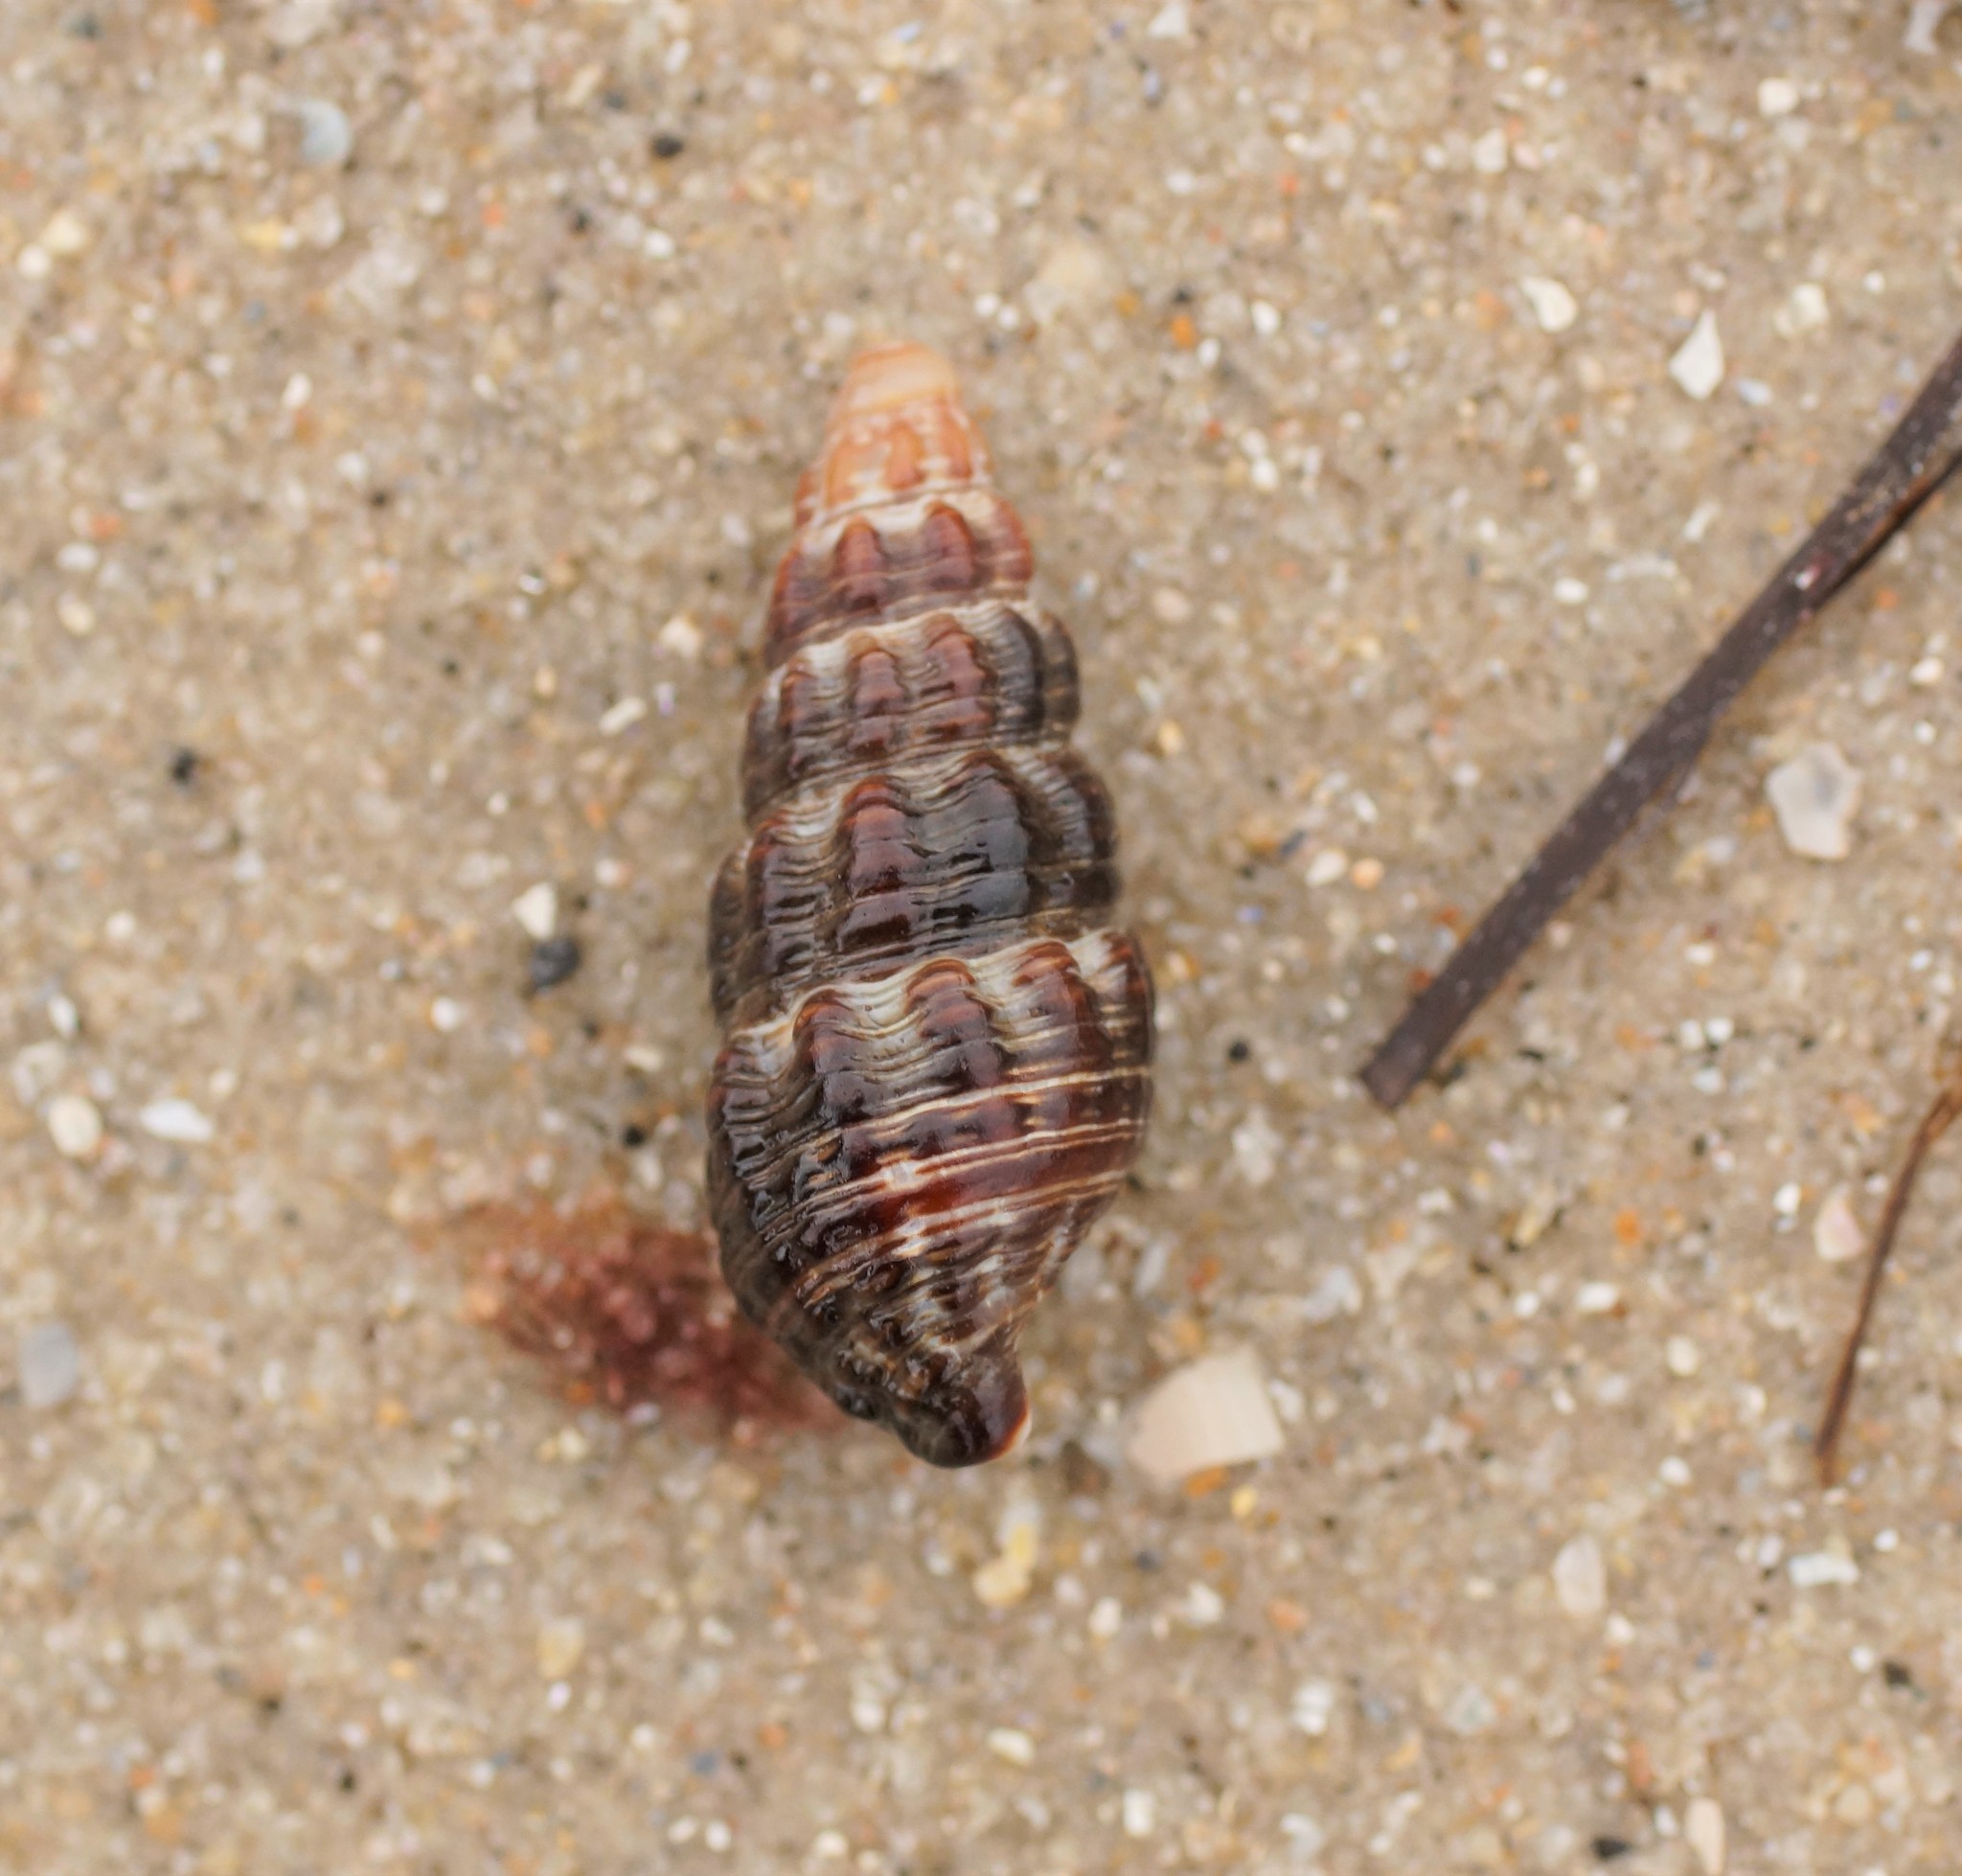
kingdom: Animalia
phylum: Mollusca
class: Gastropoda
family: Batillariidae
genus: Batillaria
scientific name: Batillaria australis
